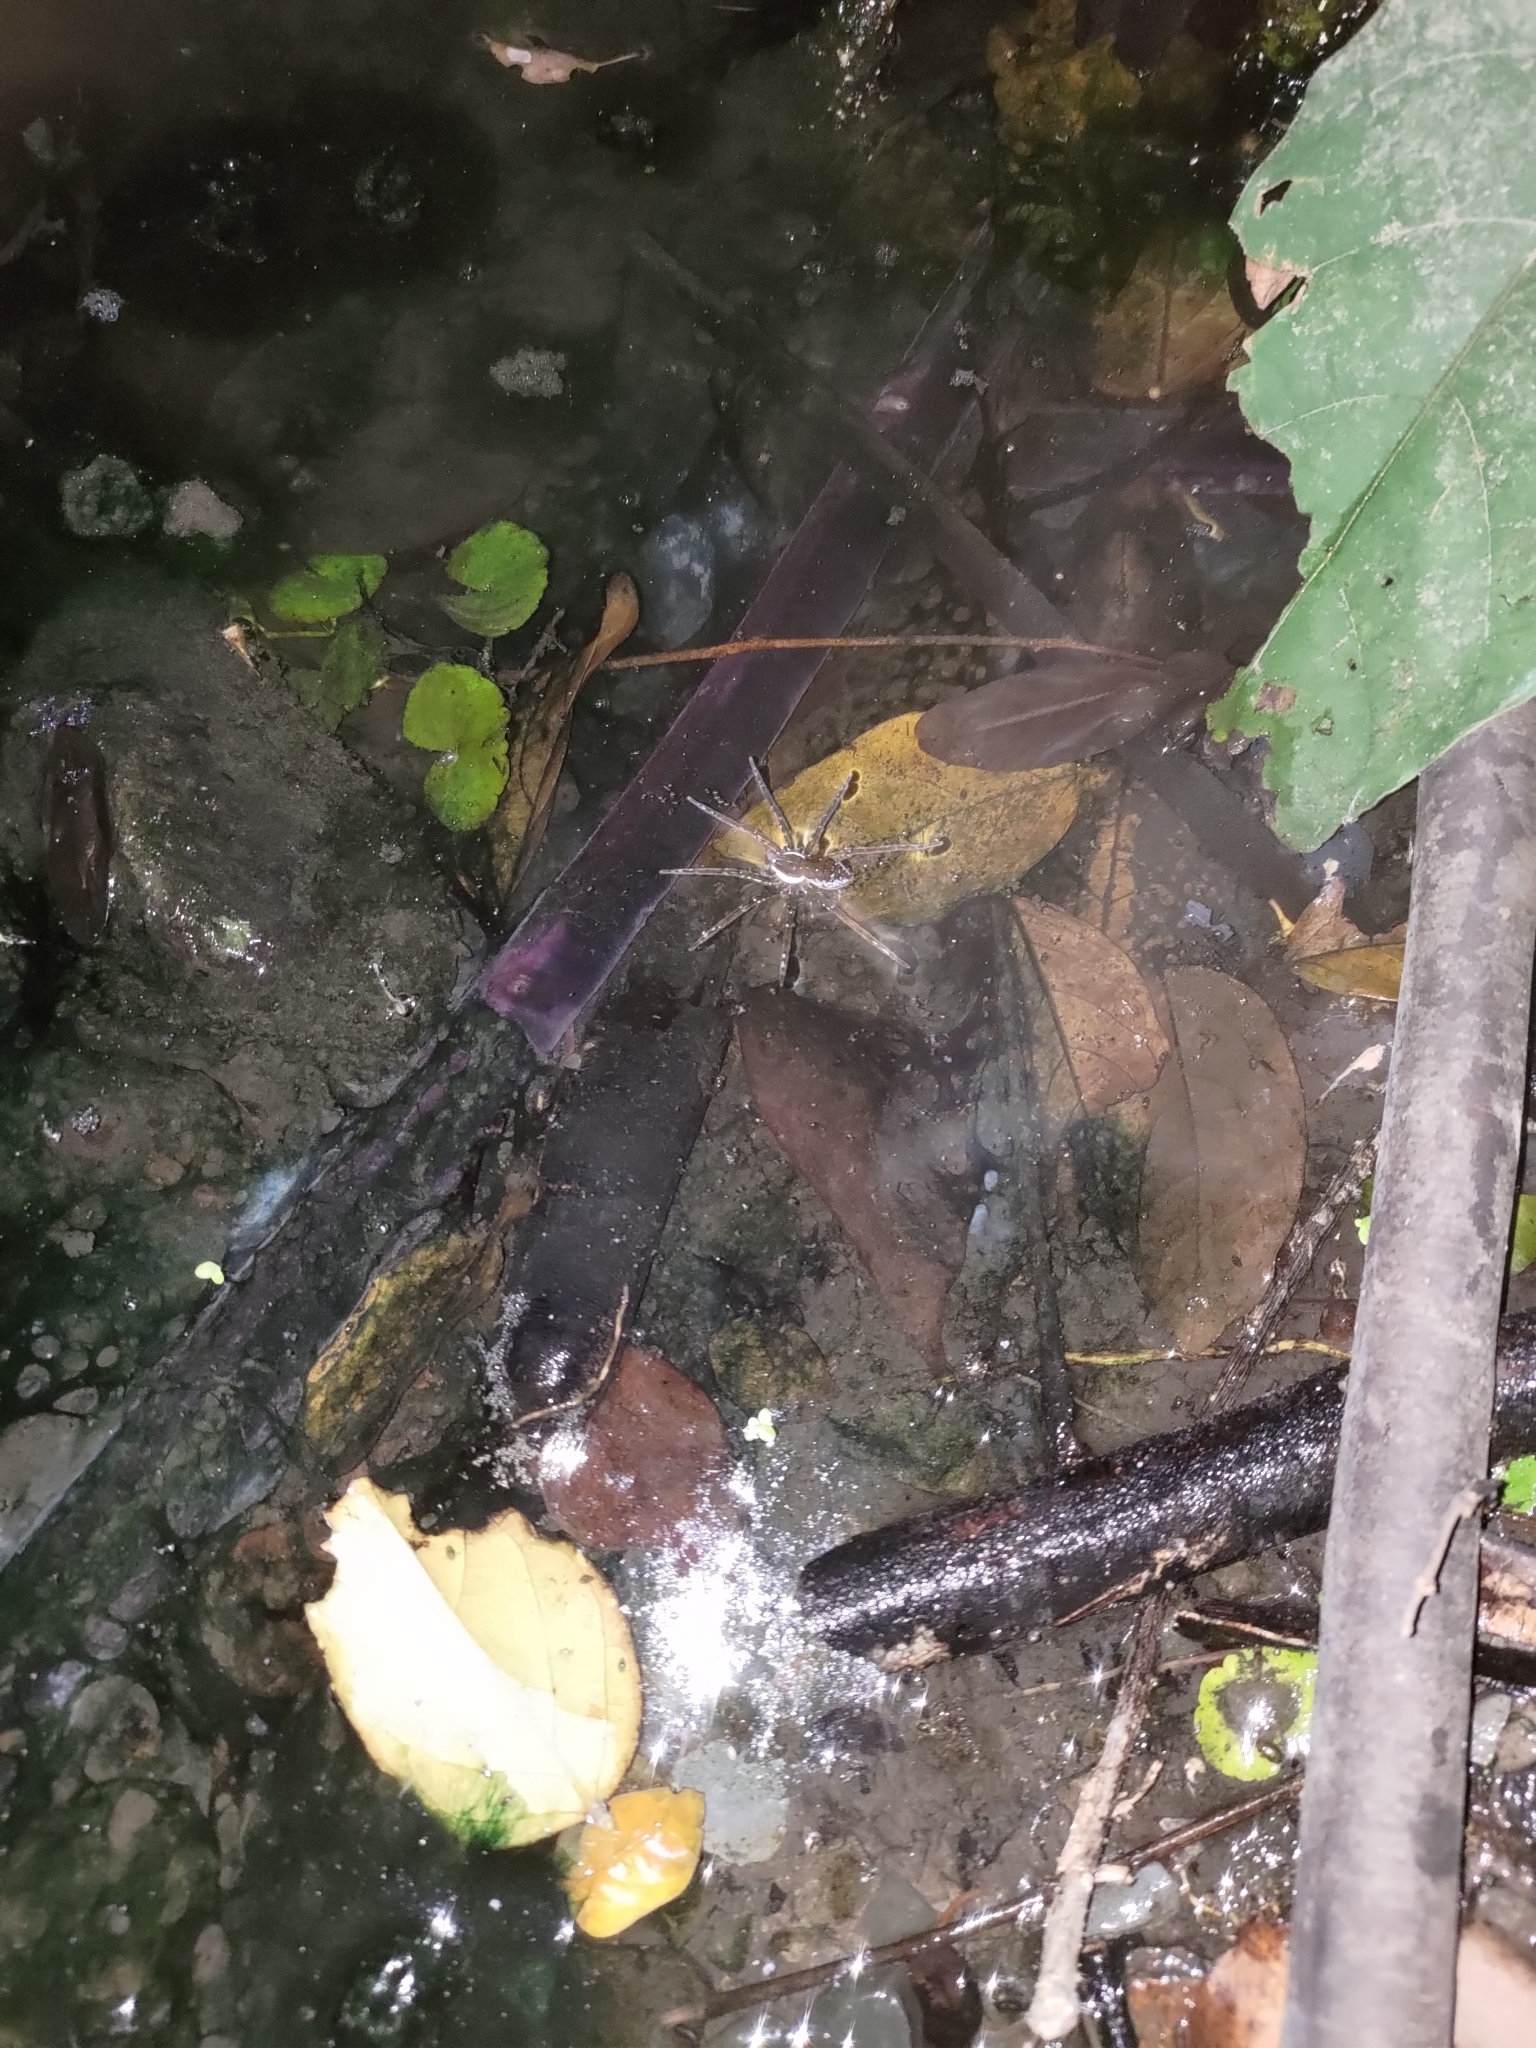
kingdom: Animalia
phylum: Arthropoda
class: Arachnida
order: Araneae
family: Pisauridae
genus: Dolomedes
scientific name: Dolomedes horishanus
